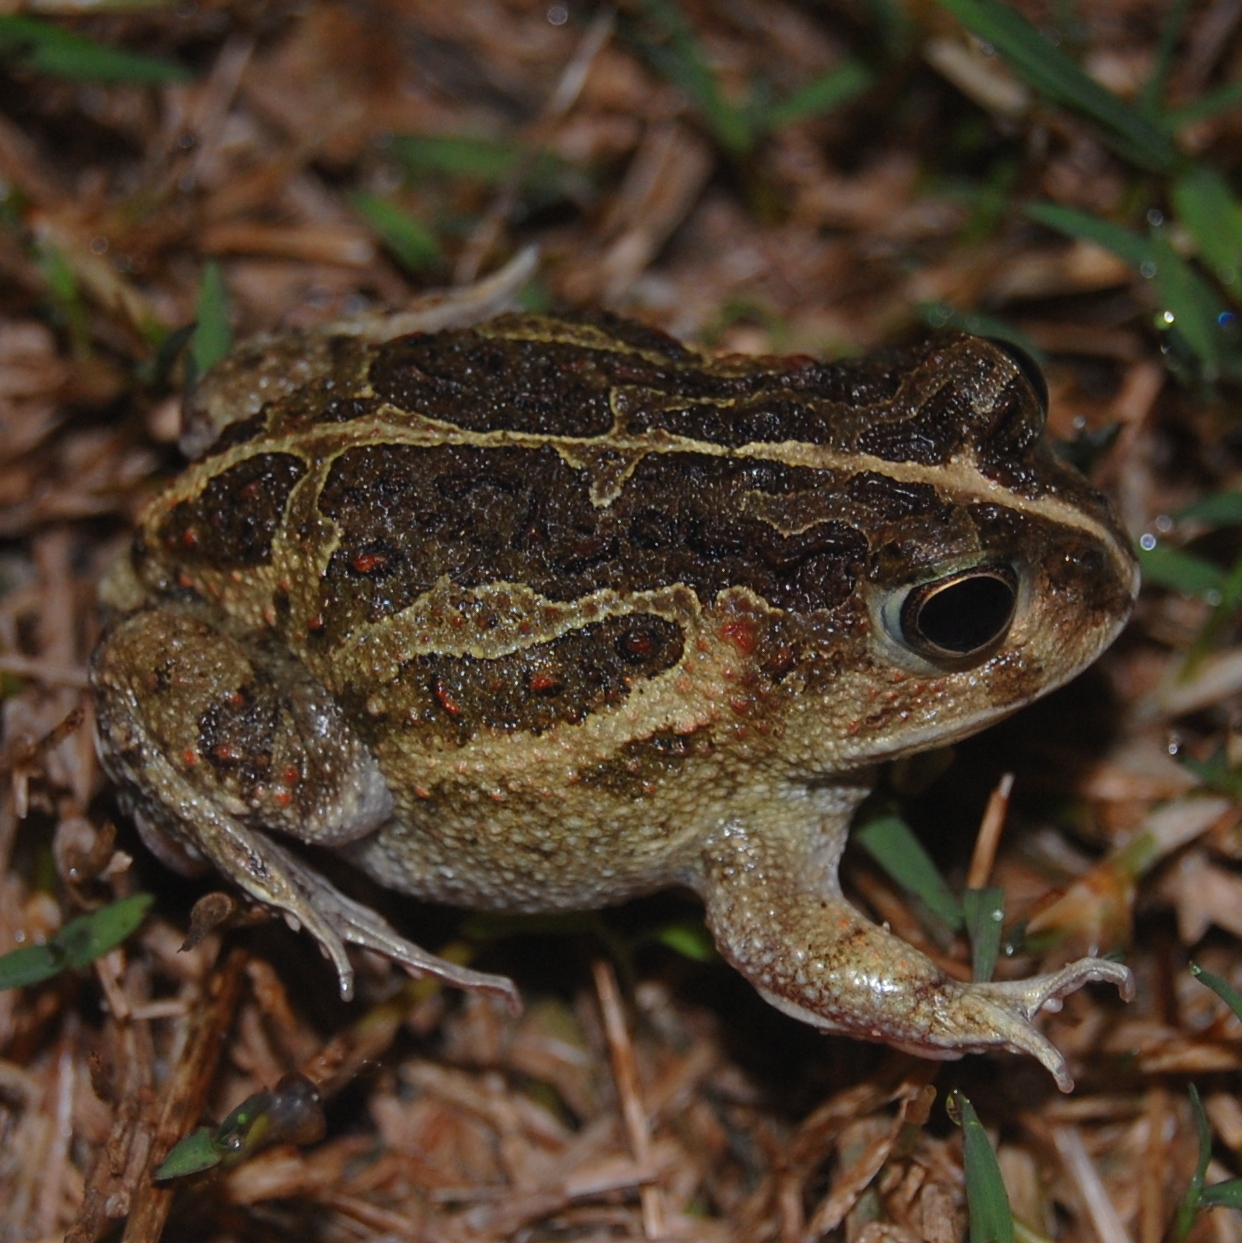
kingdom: Animalia
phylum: Chordata
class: Amphibia
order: Anura
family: Odontophrynidae
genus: Odontophrynus
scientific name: Odontophrynus
